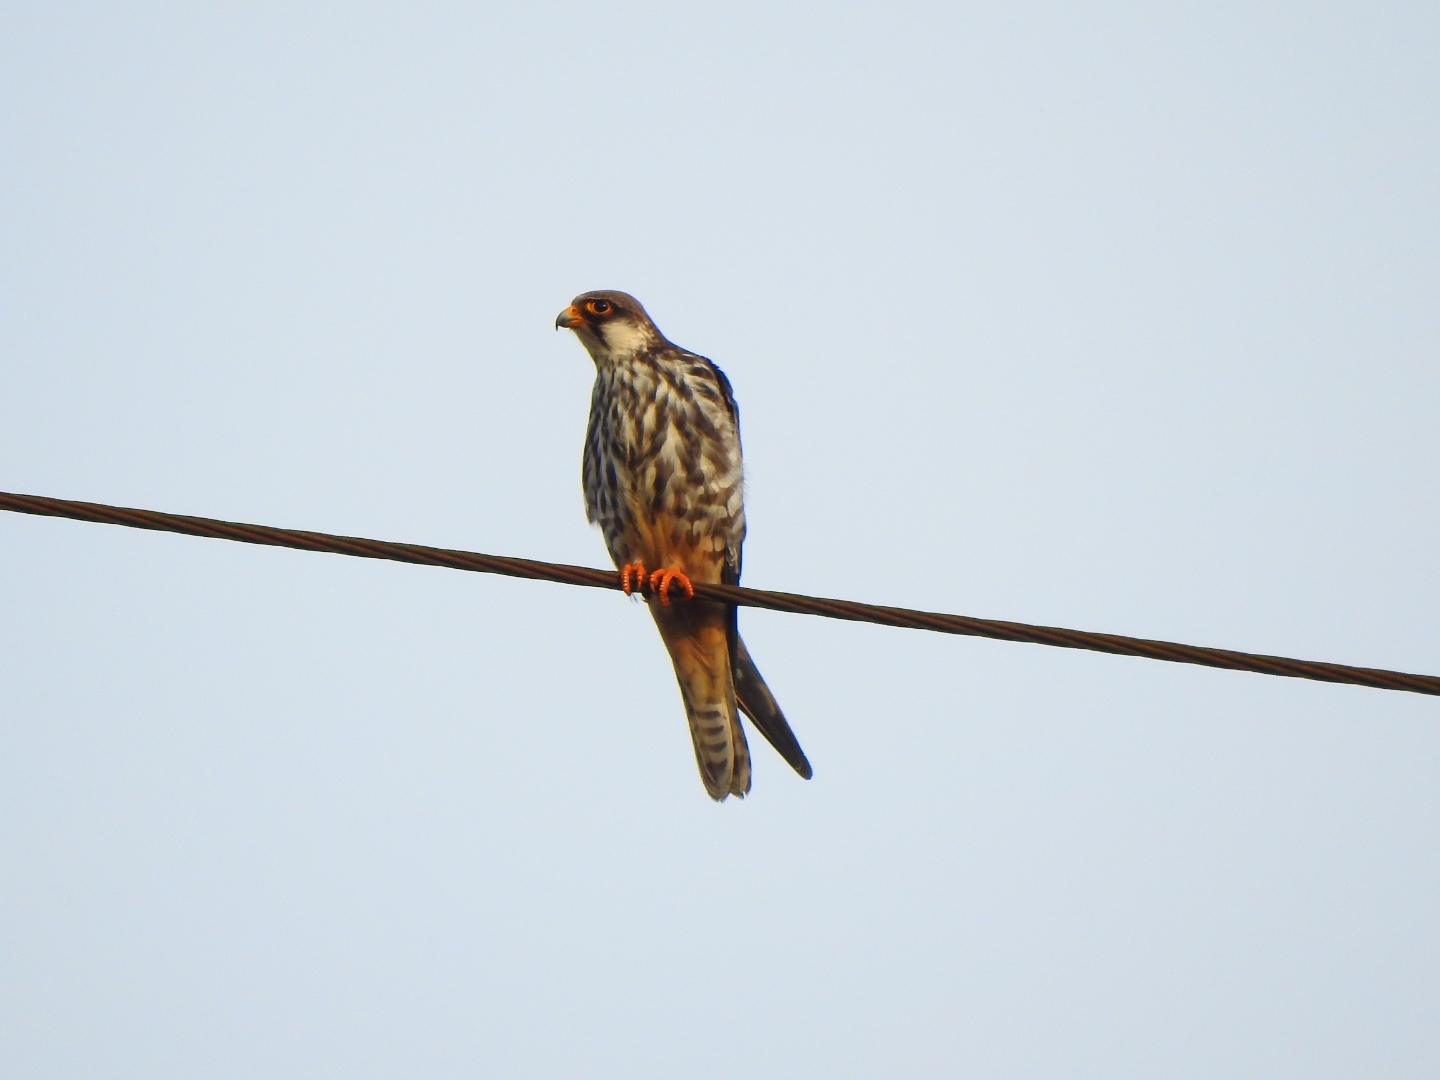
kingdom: Animalia
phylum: Chordata
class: Aves
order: Falconiformes
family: Falconidae
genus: Falco
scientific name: Falco amurensis
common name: Amur falcon
